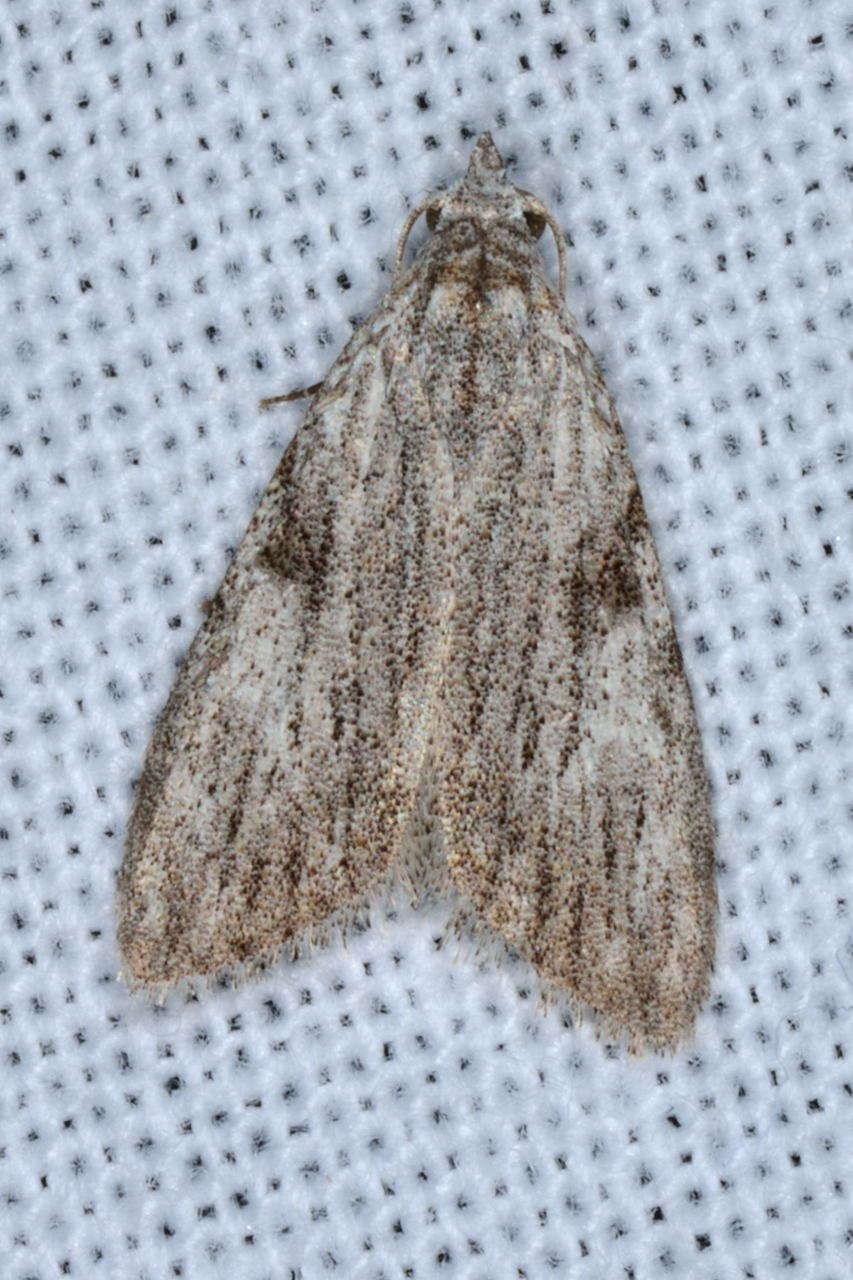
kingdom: Animalia
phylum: Arthropoda
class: Insecta
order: Lepidoptera
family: Nolidae
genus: Nola
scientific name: Nola monozona
